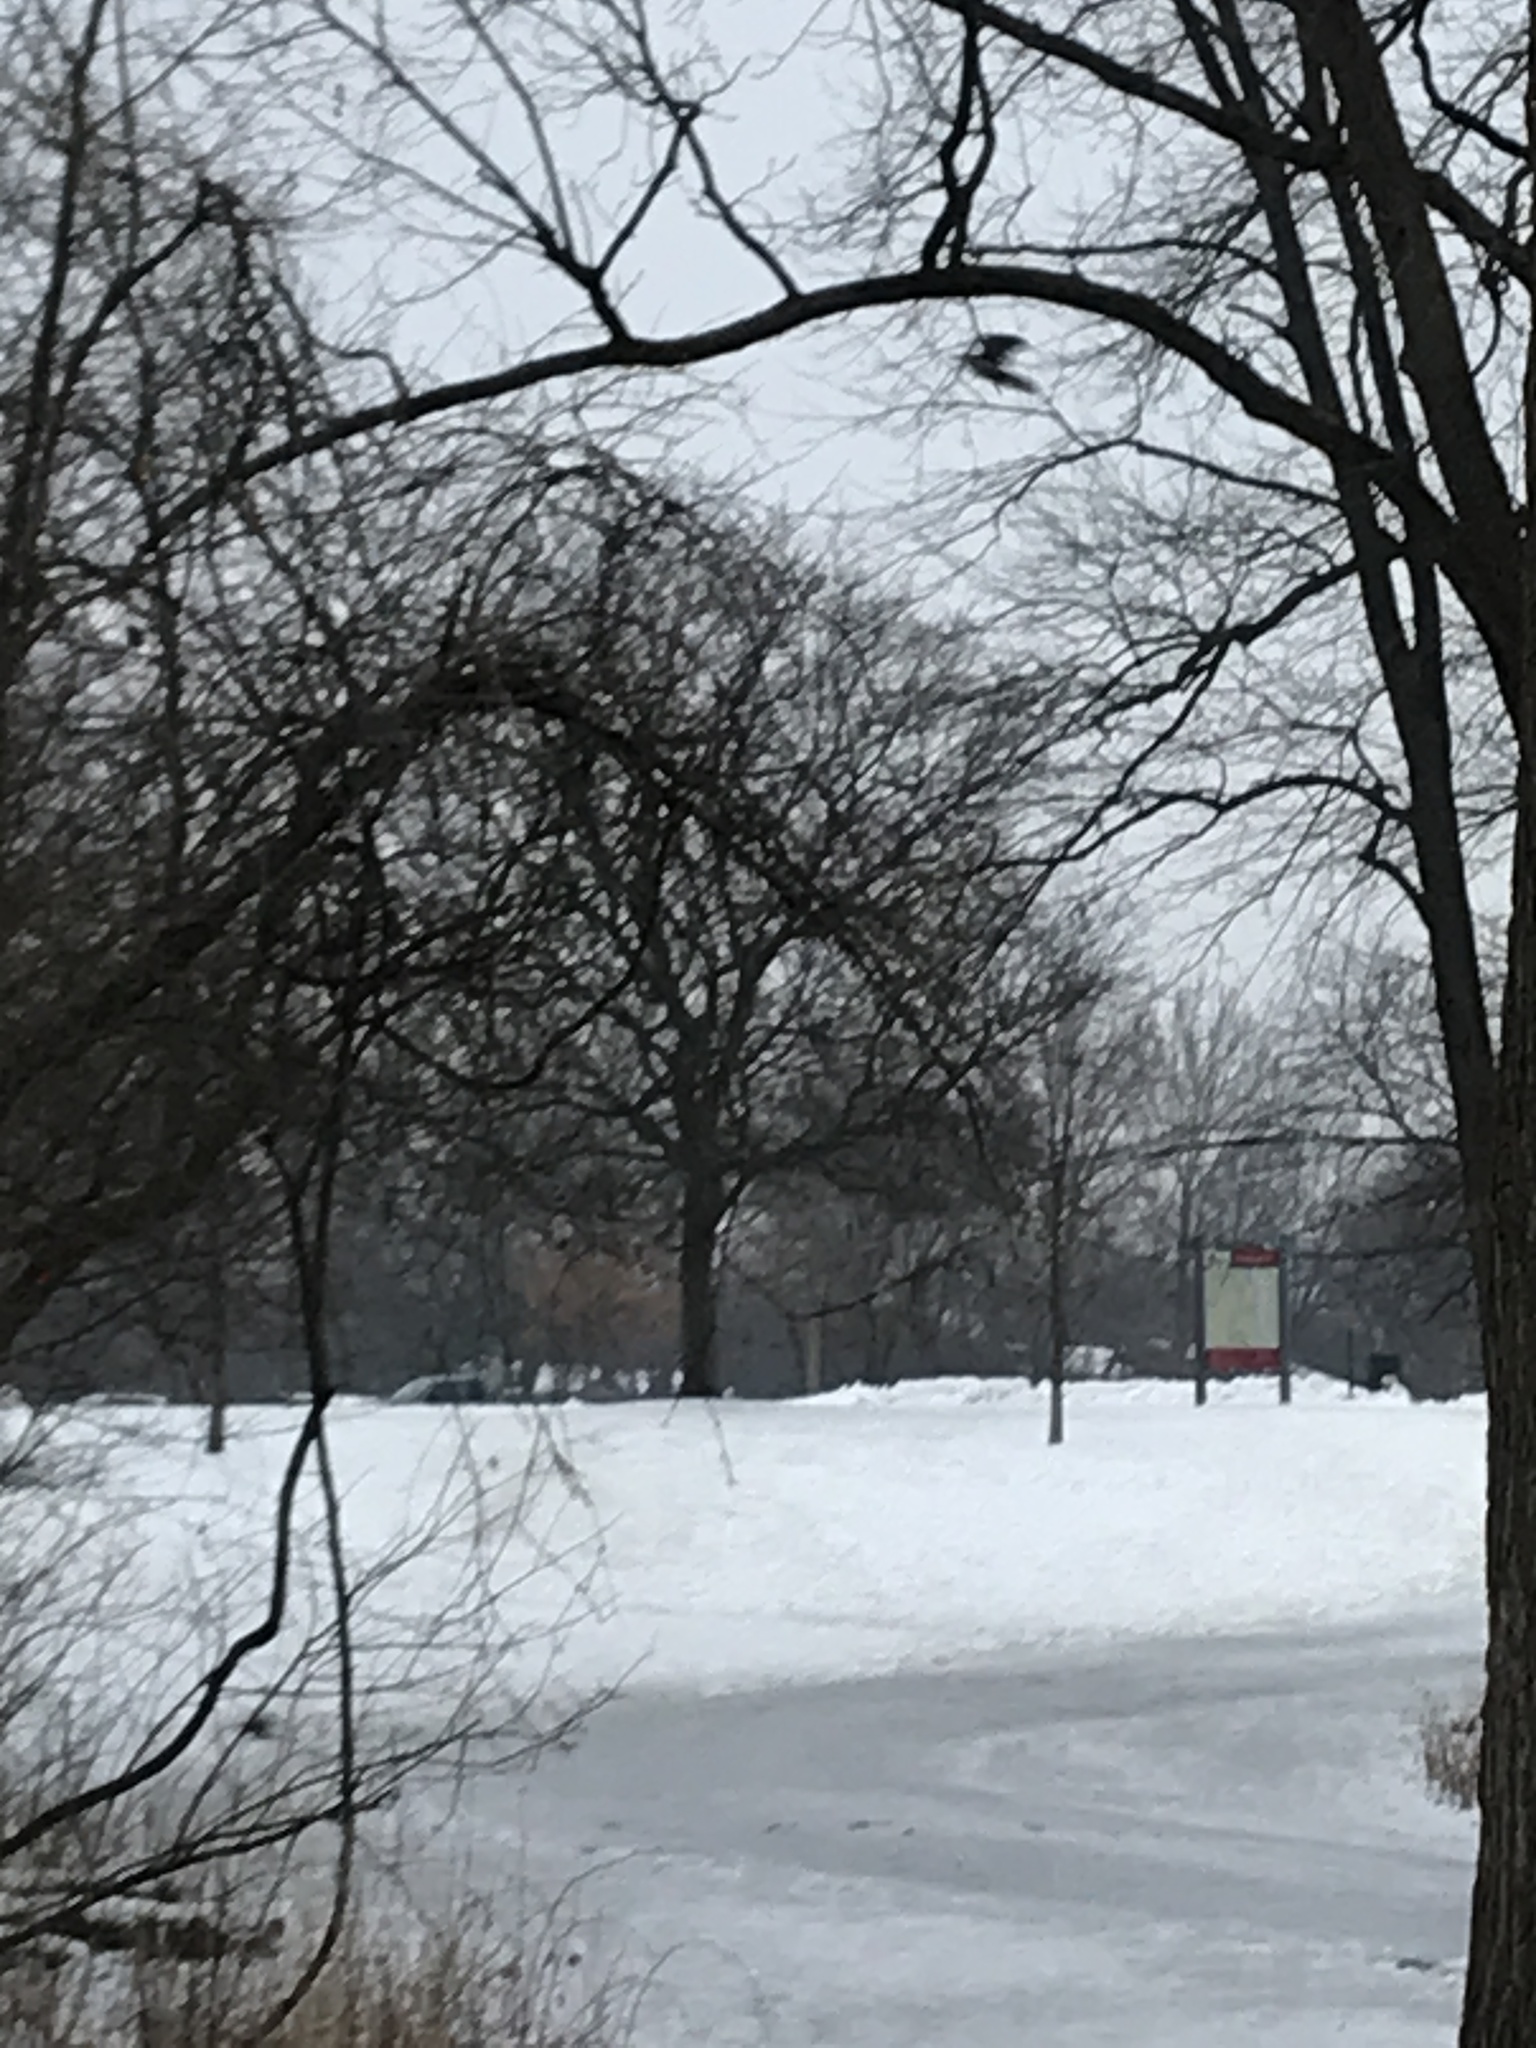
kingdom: Animalia
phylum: Chordata
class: Aves
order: Columbiformes
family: Columbidae
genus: Zenaida
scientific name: Zenaida macroura
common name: Mourning dove
